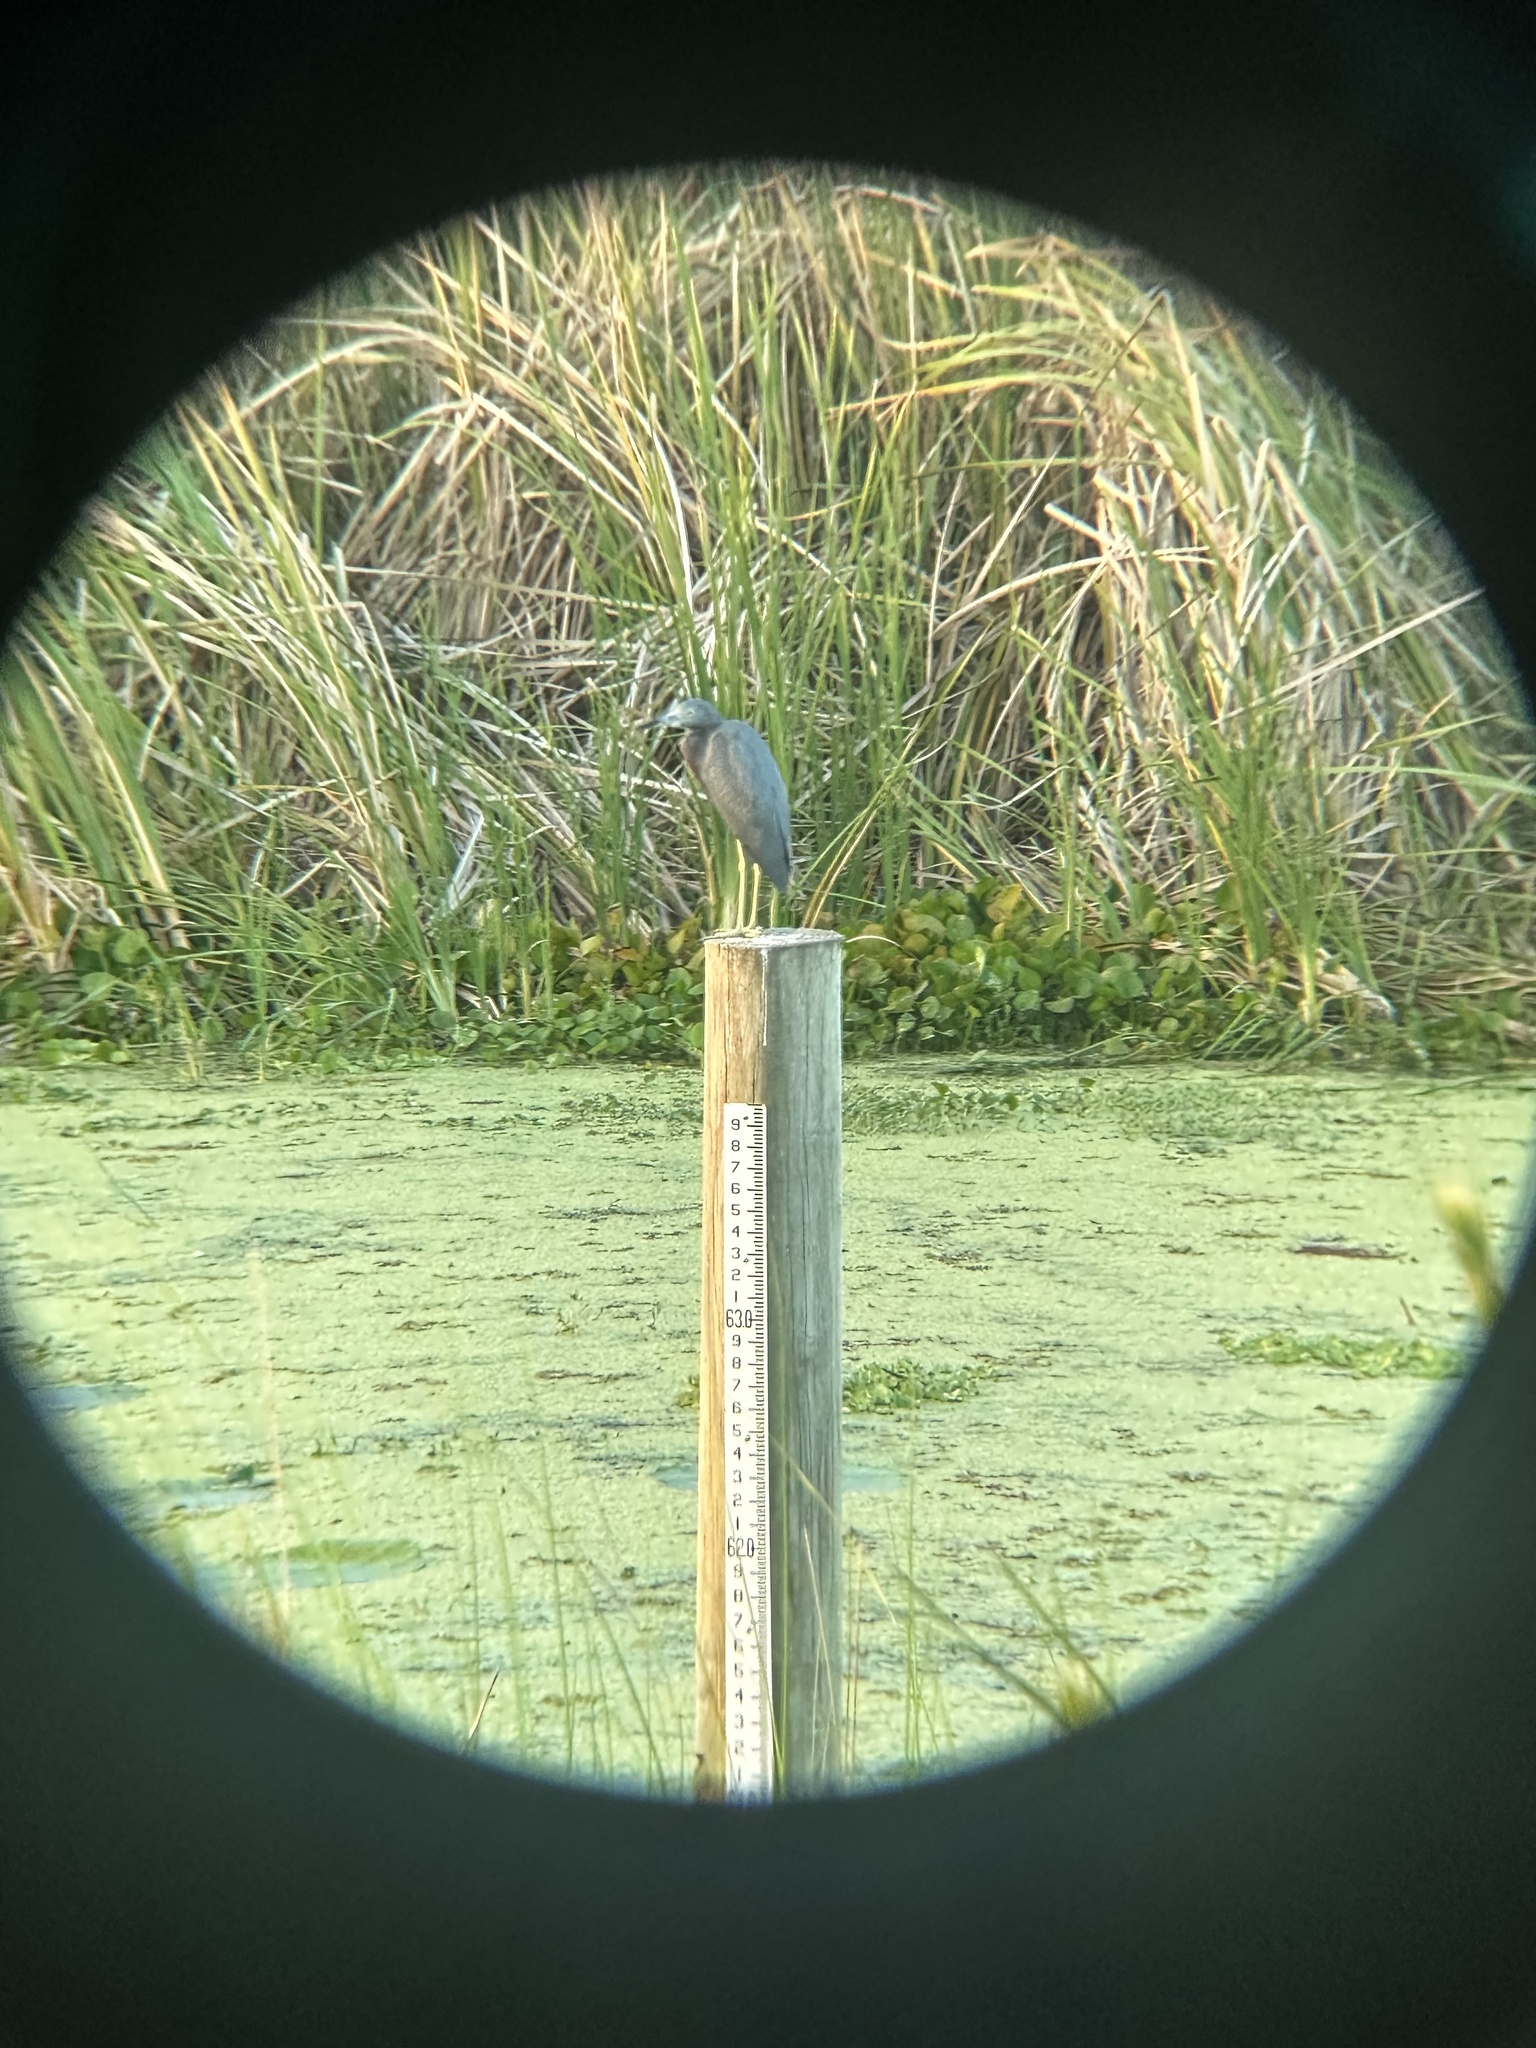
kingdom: Animalia
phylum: Chordata
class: Aves
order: Pelecaniformes
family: Ardeidae
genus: Egretta
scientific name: Egretta caerulea
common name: Little blue heron
